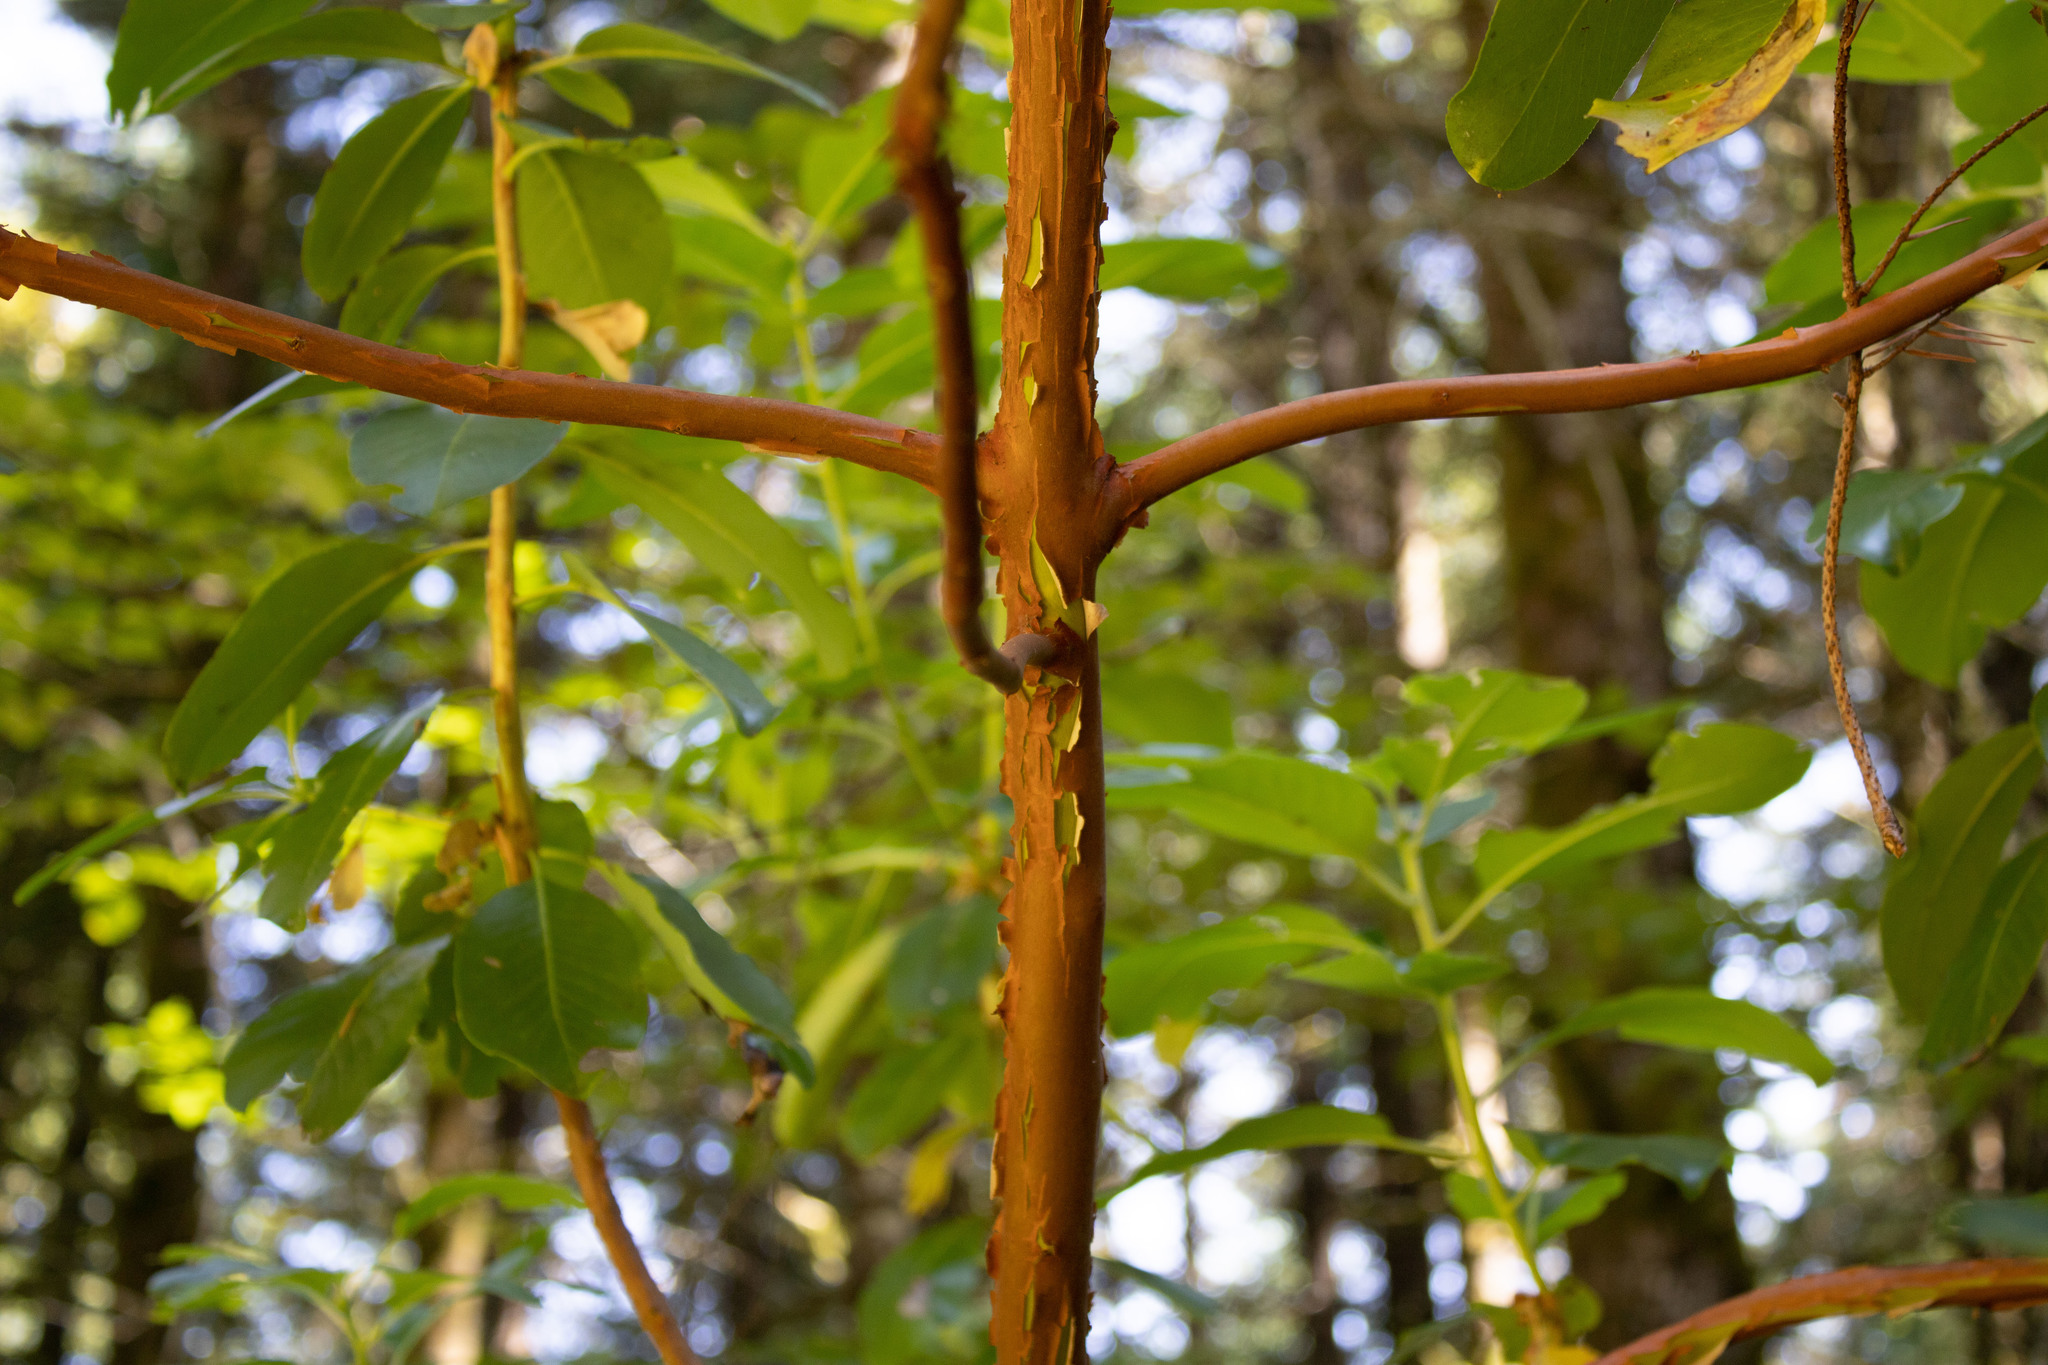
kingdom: Plantae
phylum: Tracheophyta
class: Magnoliopsida
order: Ericales
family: Ericaceae
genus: Arbutus
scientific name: Arbutus menziesii
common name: Pacific madrone
